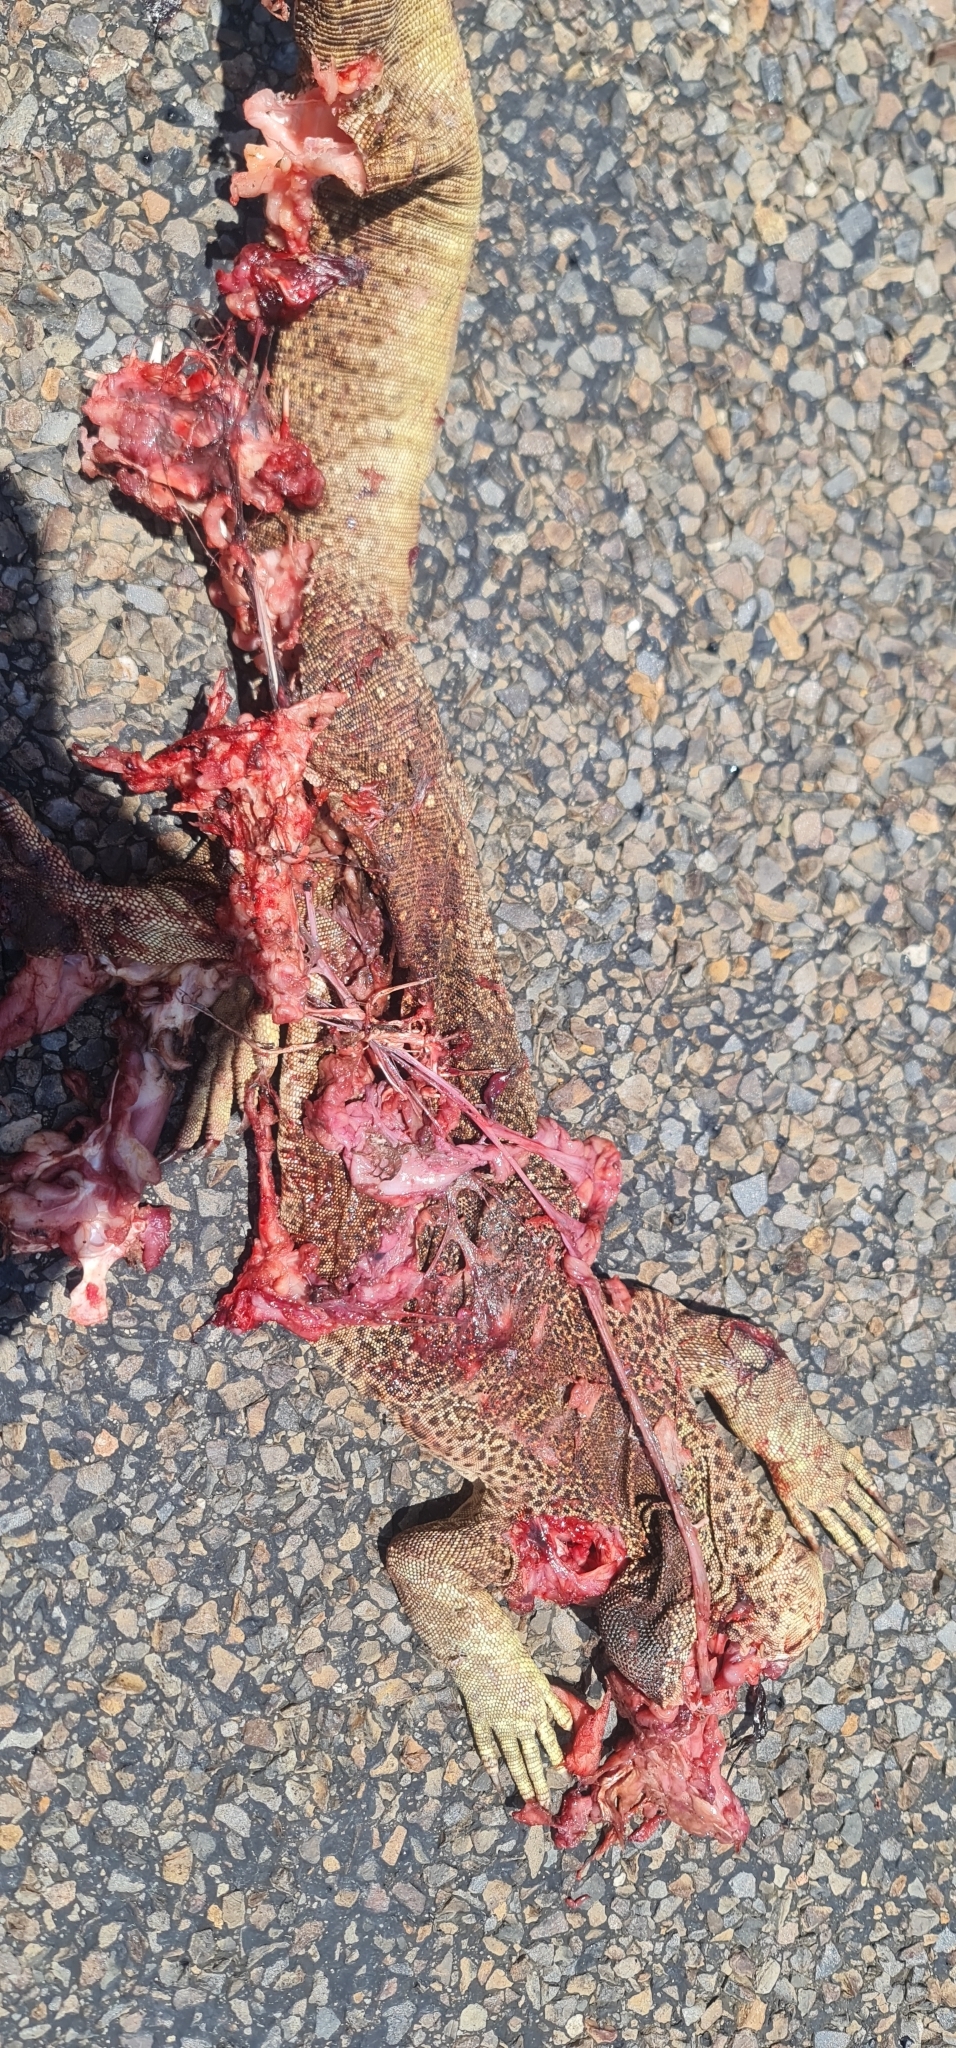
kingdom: Animalia
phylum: Chordata
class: Squamata
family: Varanidae
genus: Varanus
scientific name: Varanus panoptes
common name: Yellow-spotted monitor
